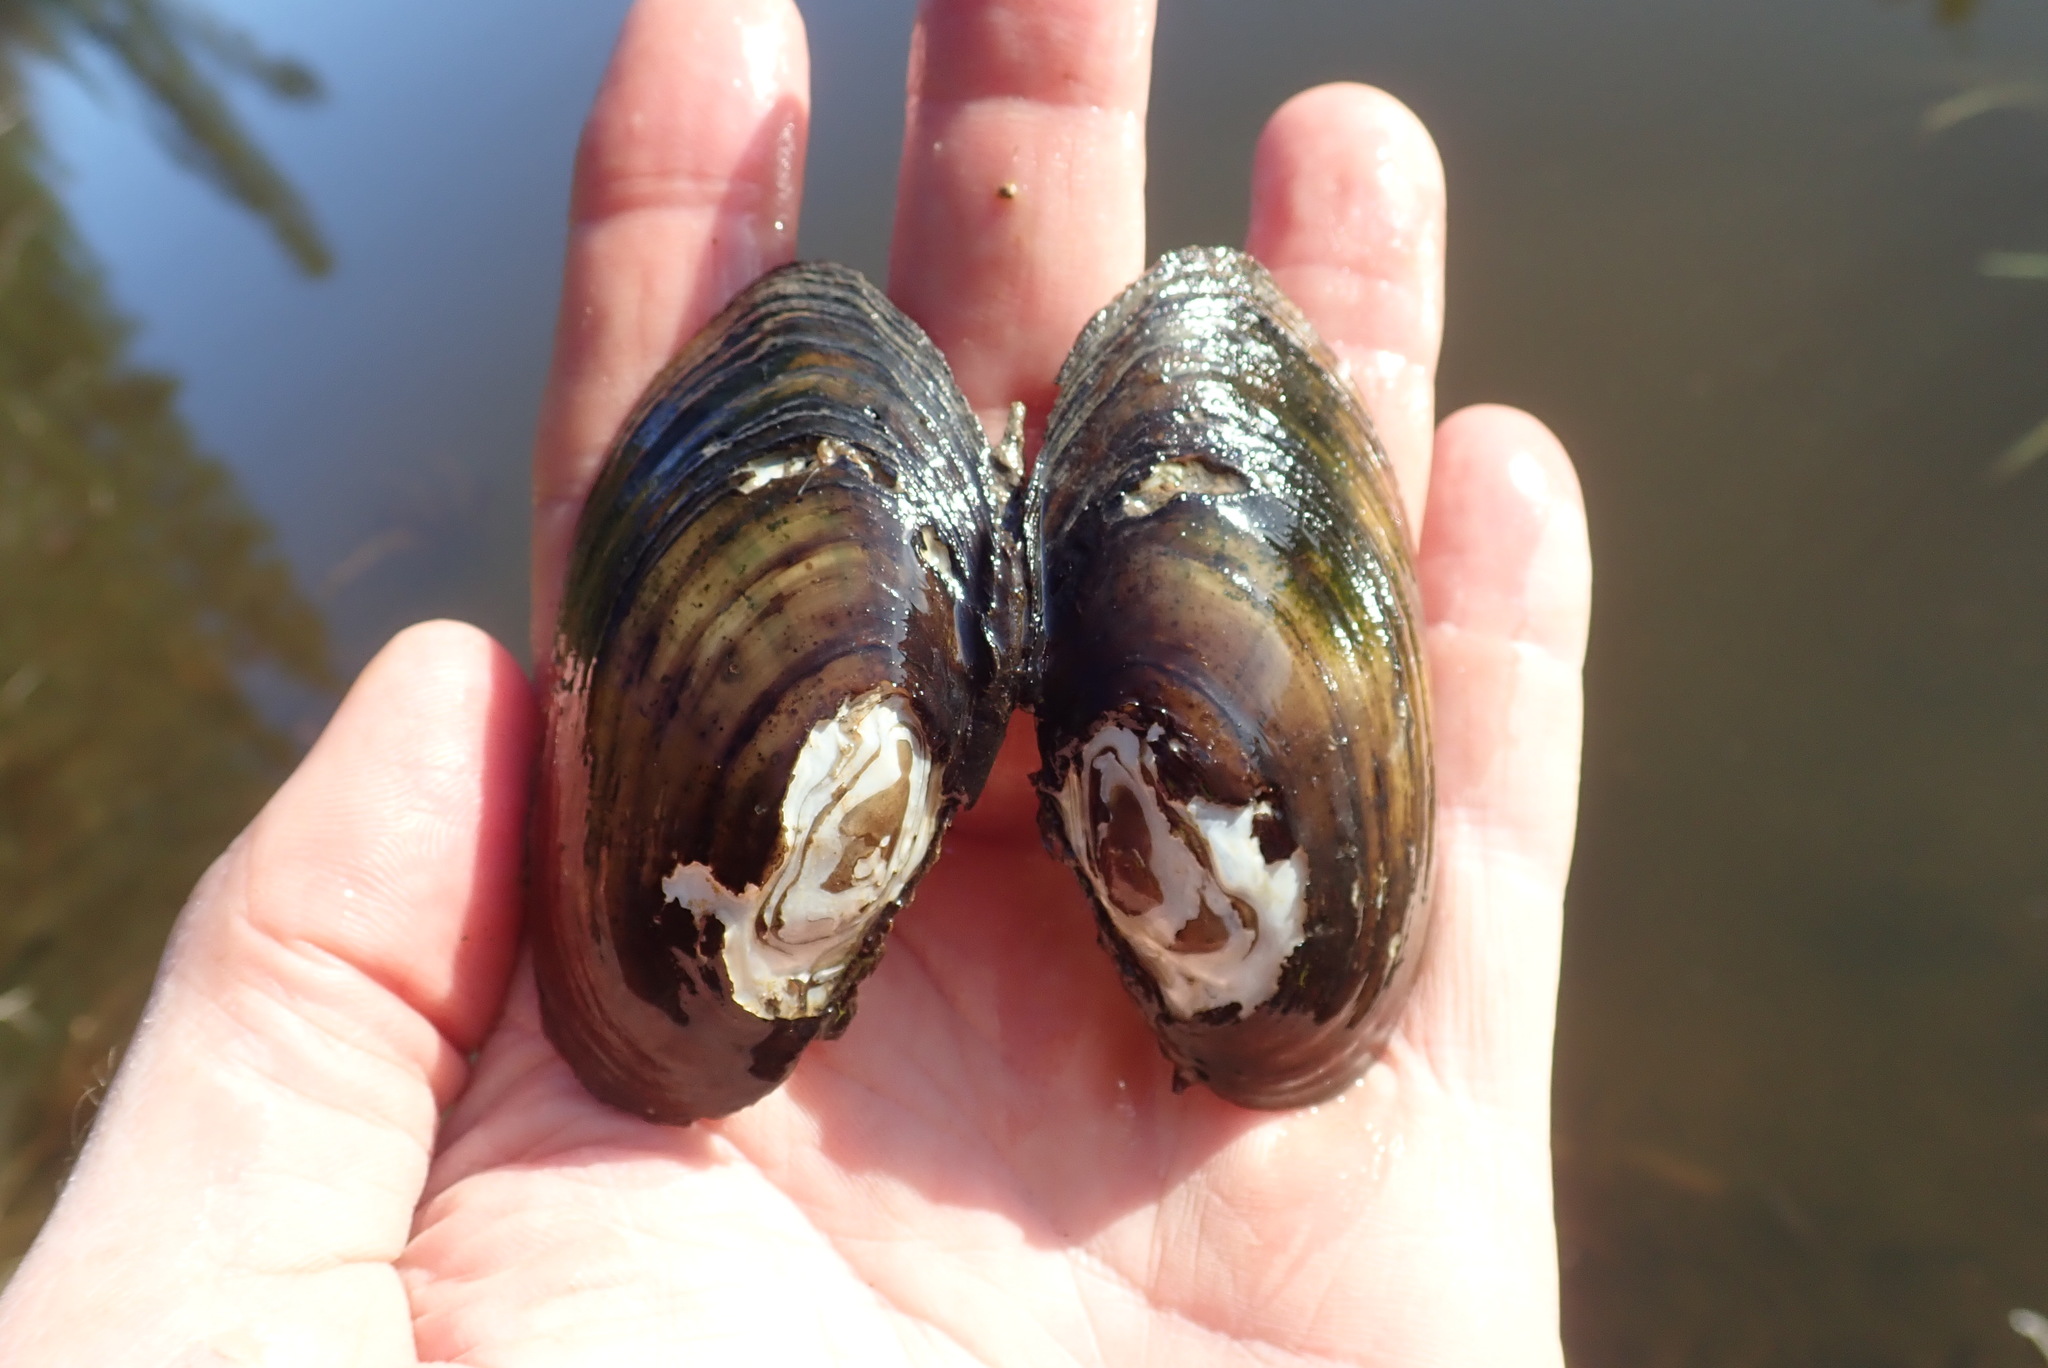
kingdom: Animalia
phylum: Mollusca
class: Bivalvia
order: Unionida
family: Unionidae
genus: Lampsilis
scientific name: Lampsilis siliquoidea
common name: Fatmucket
